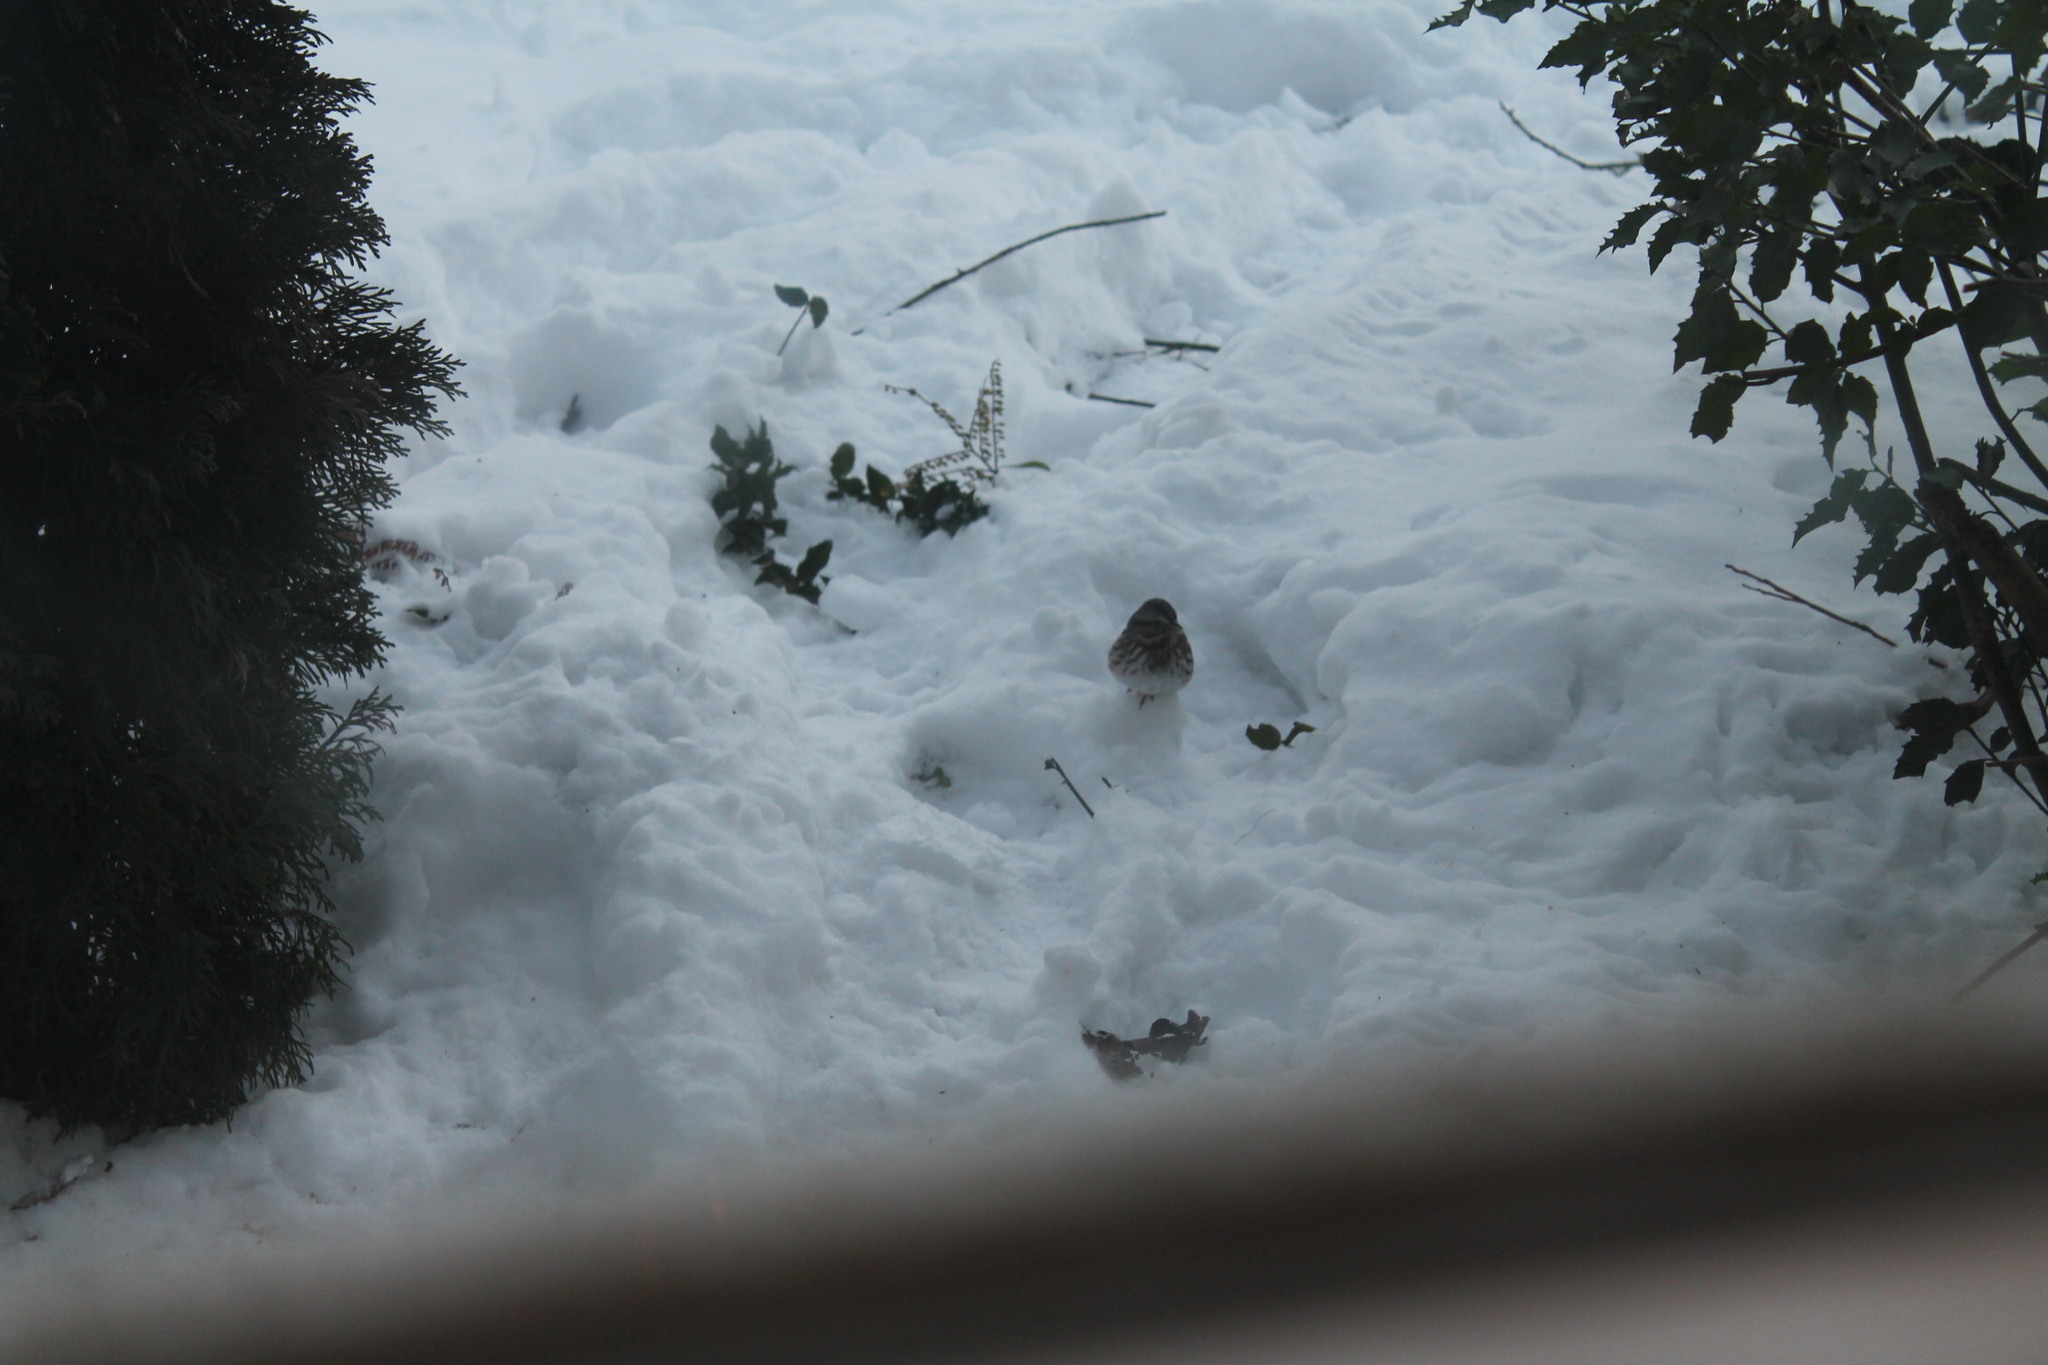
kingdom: Animalia
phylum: Chordata
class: Aves
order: Passeriformes
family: Passerellidae
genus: Melospiza
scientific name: Melospiza melodia
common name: Song sparrow
